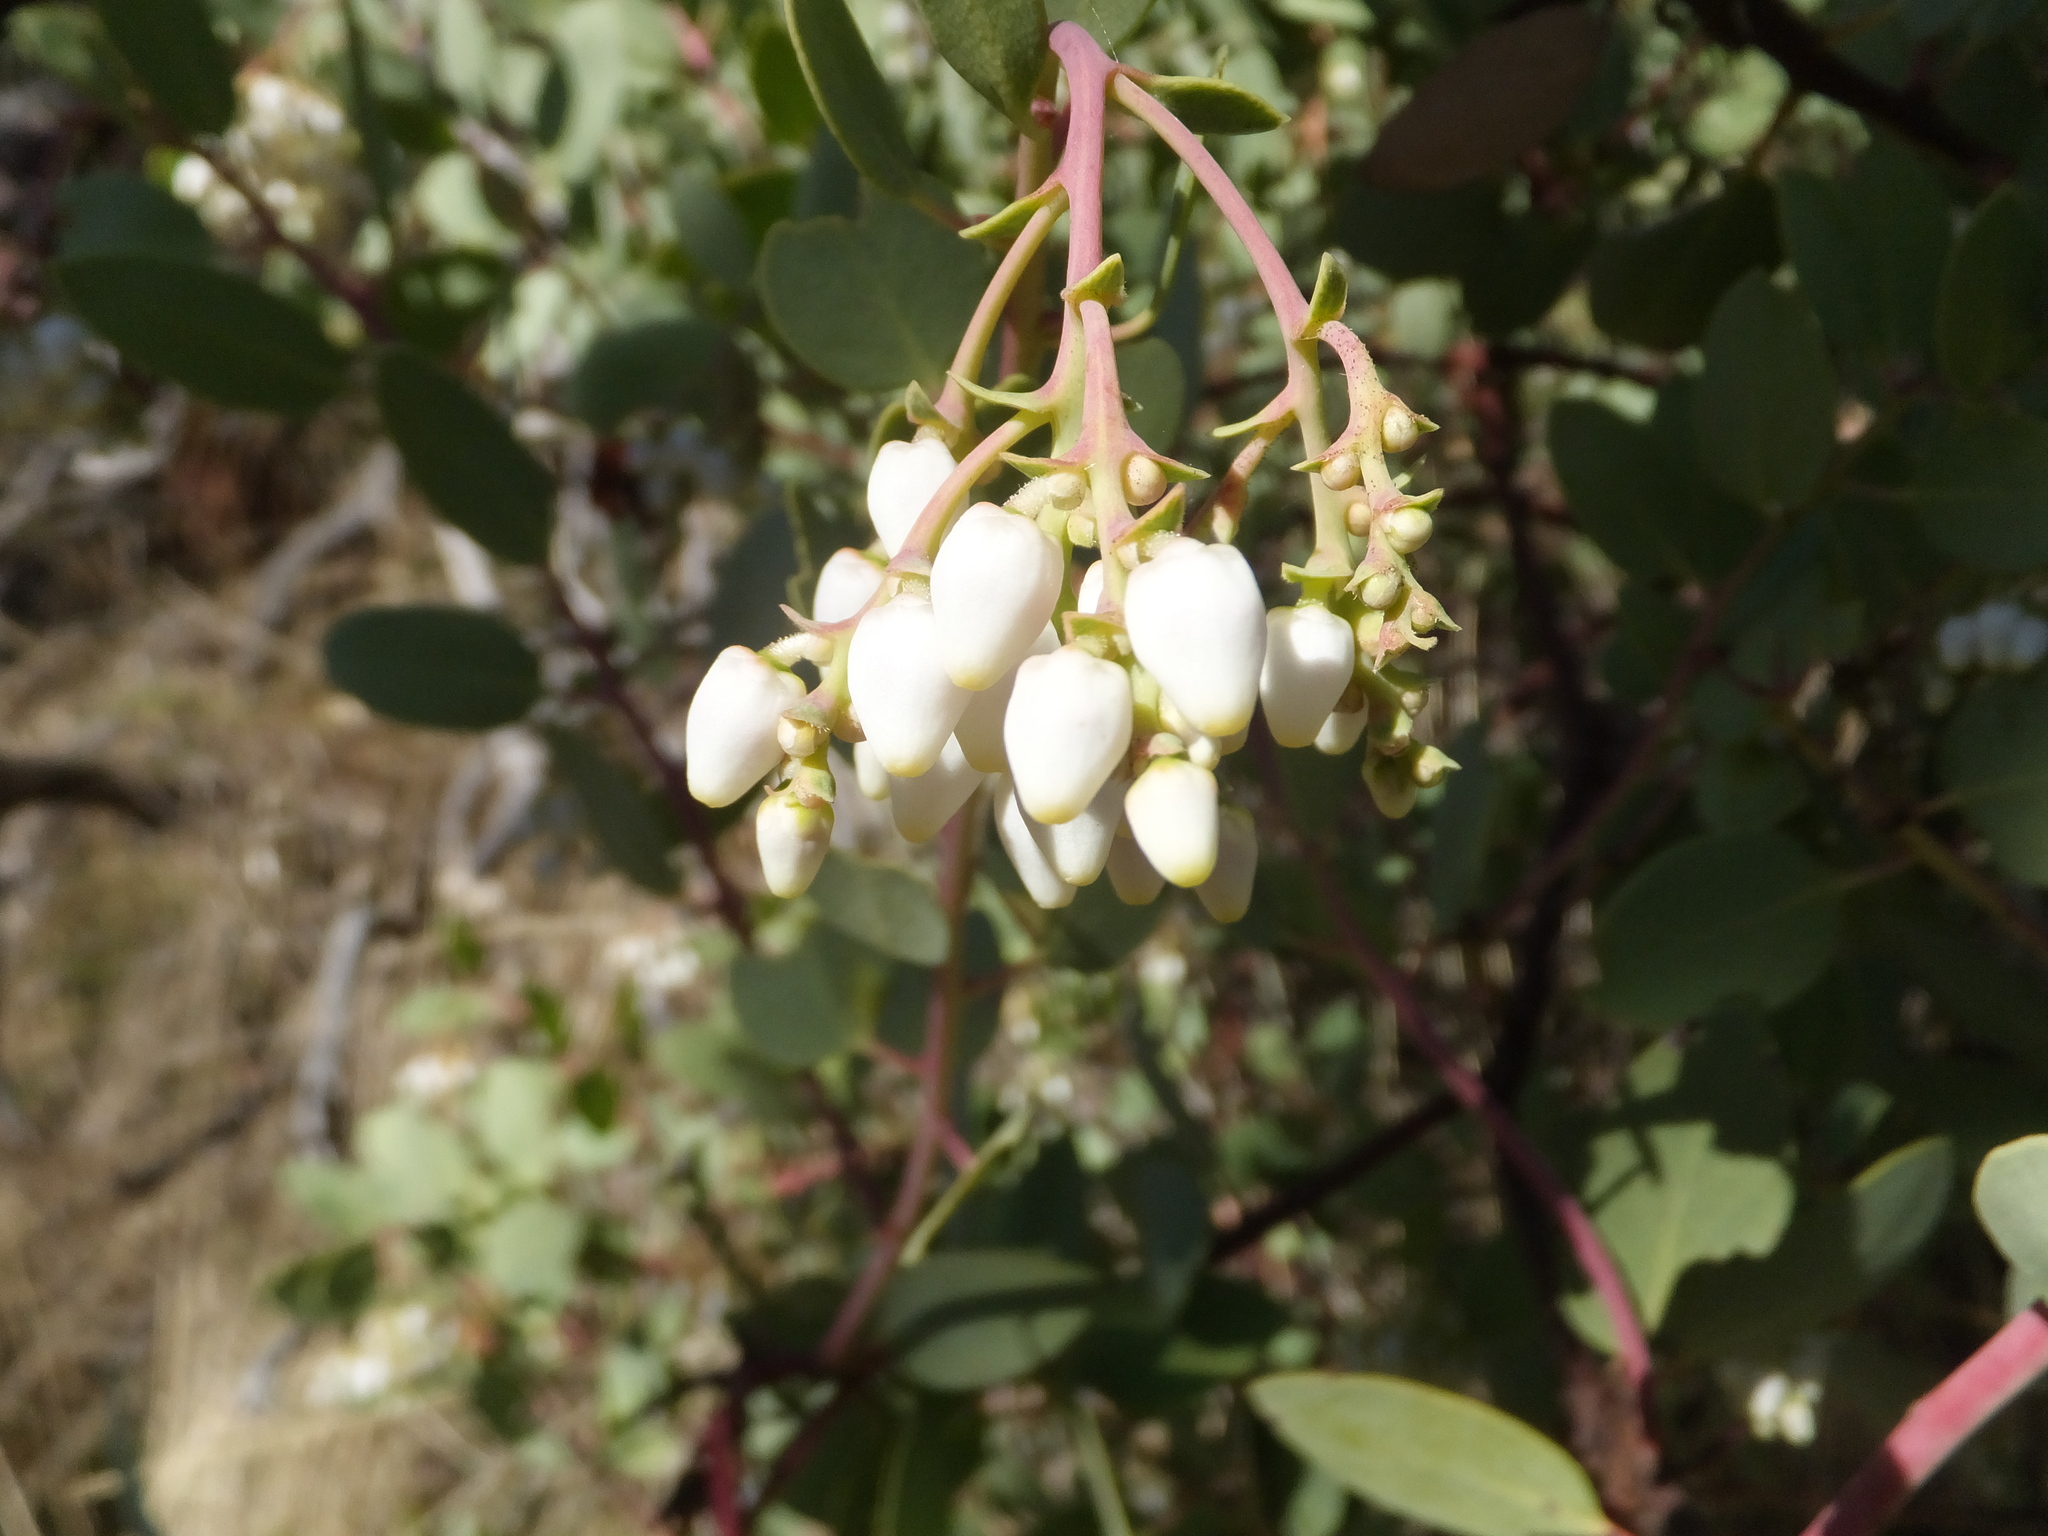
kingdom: Plantae
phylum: Tracheophyta
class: Magnoliopsida
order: Ericales
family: Ericaceae
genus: Arctostaphylos
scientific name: Arctostaphylos glauca
